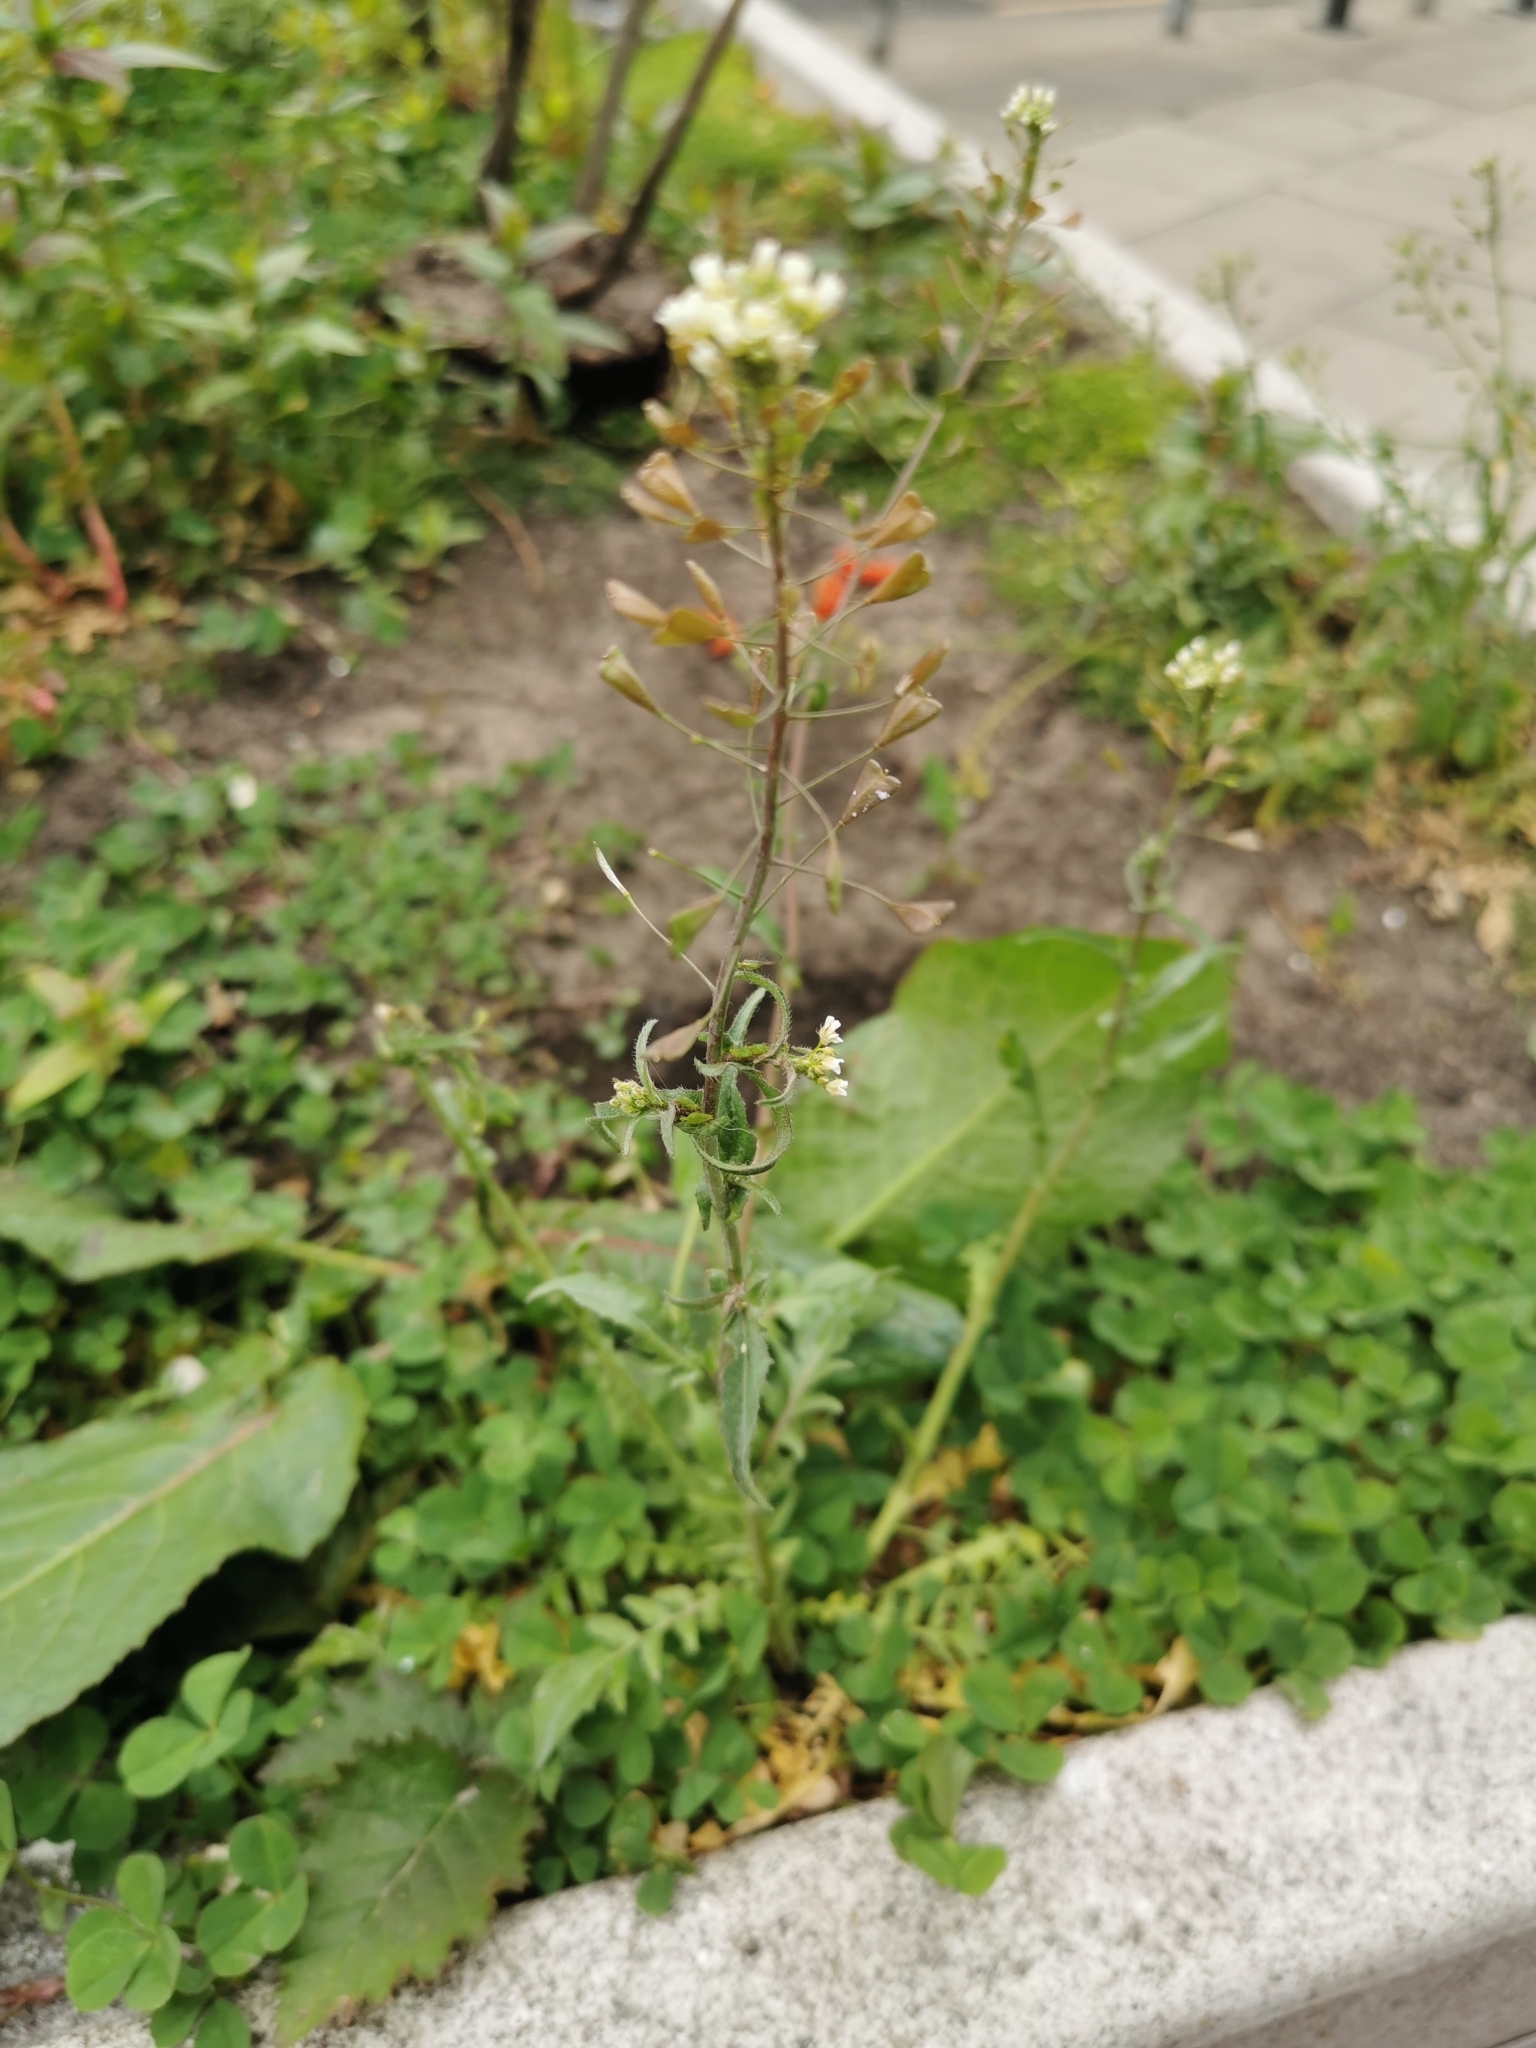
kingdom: Plantae
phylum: Tracheophyta
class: Magnoliopsida
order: Brassicales
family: Brassicaceae
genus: Capsella
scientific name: Capsella bursa-pastoris
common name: Shepherd's purse
